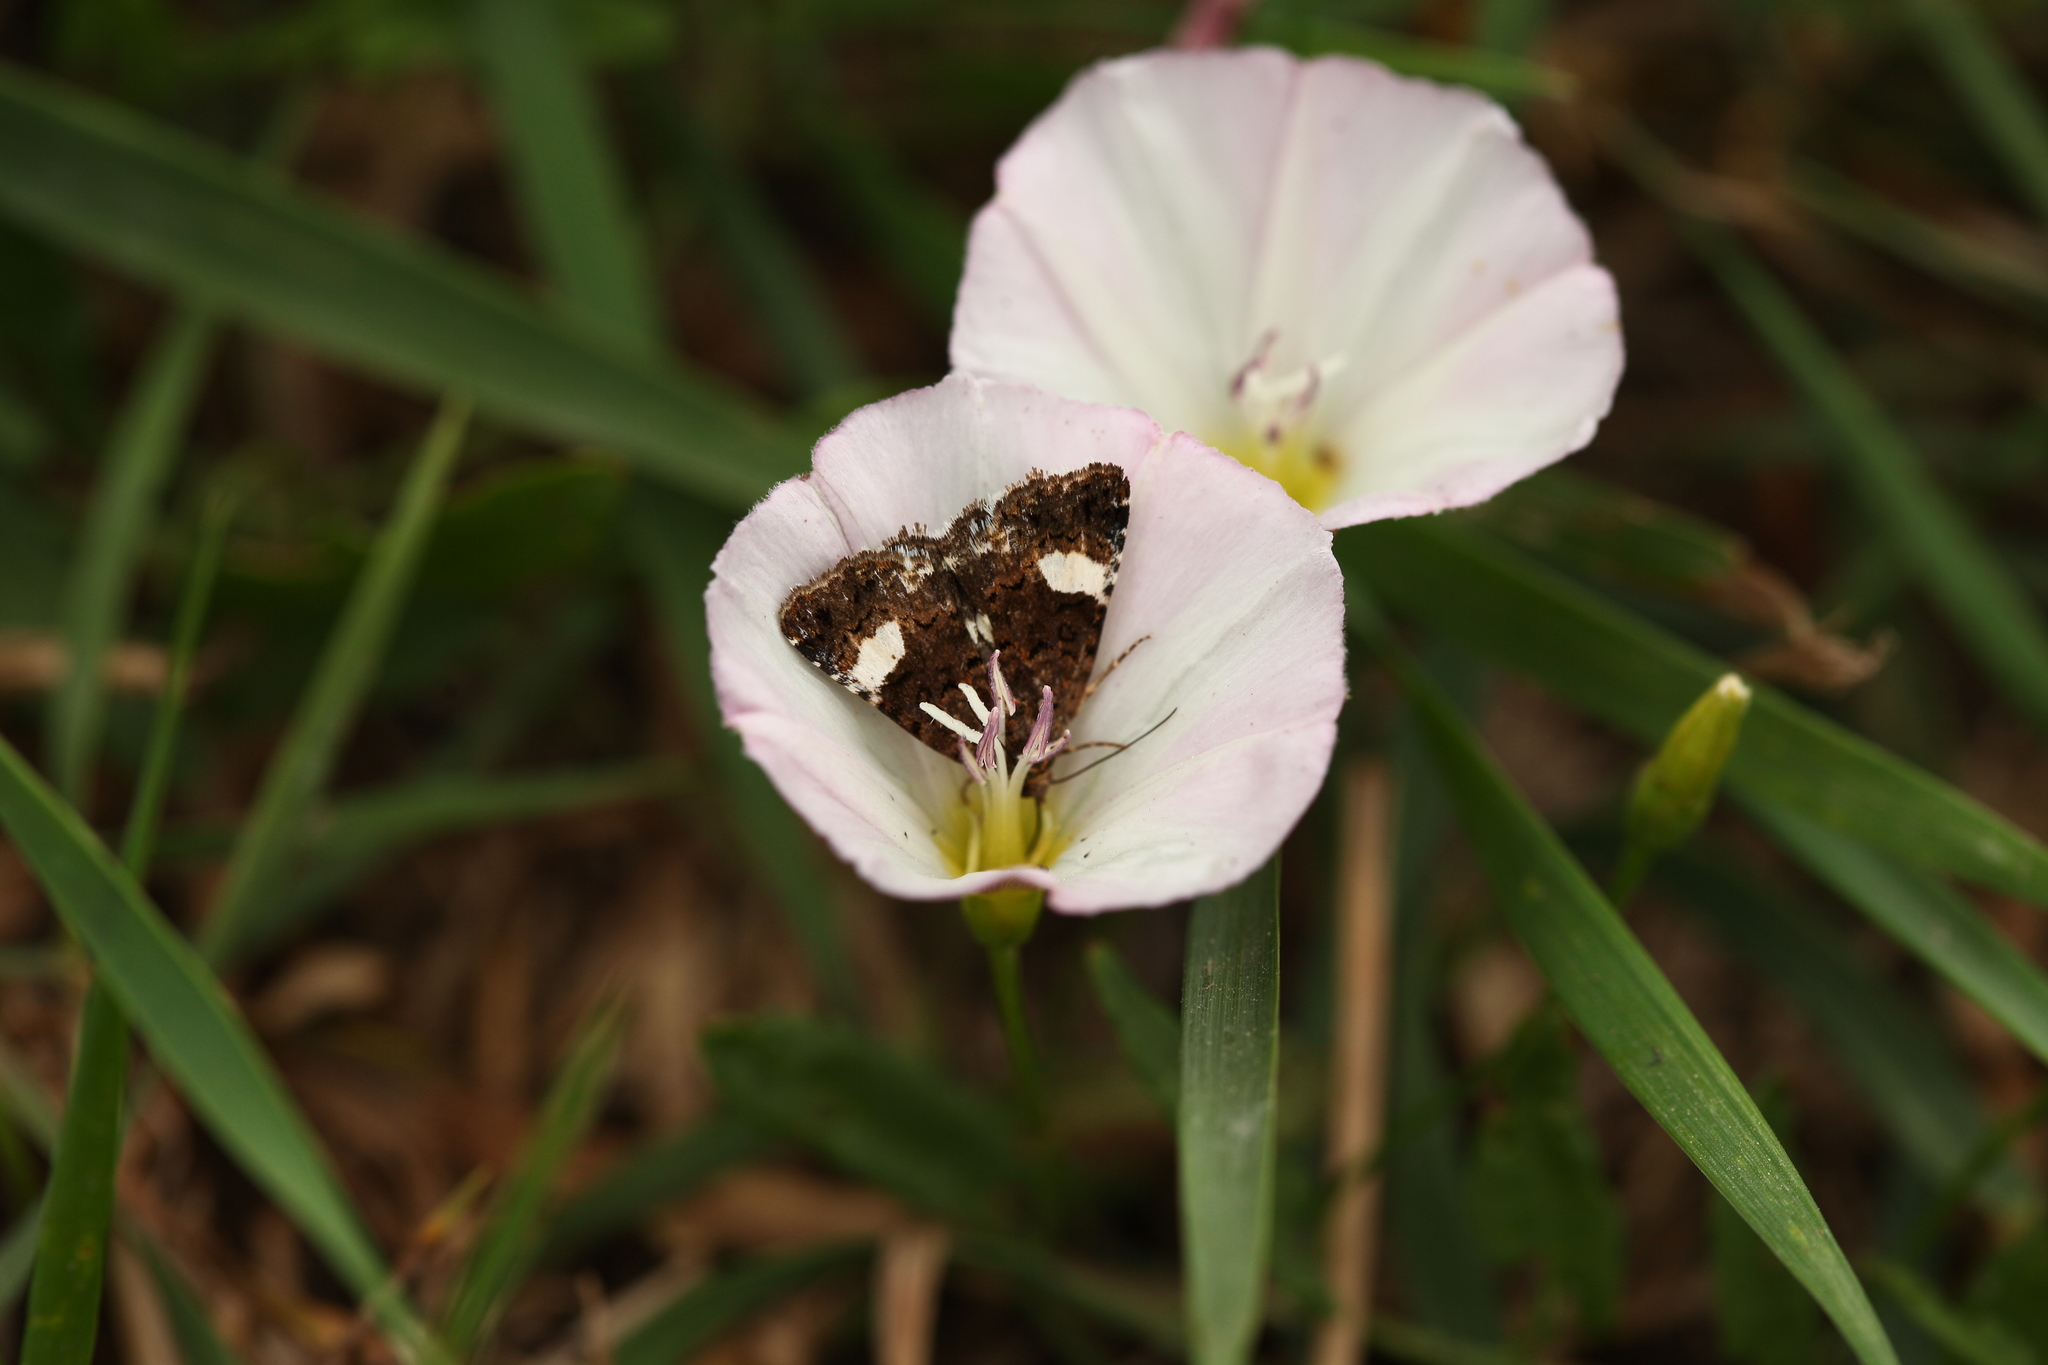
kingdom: Animalia
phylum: Arthropoda
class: Insecta
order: Lepidoptera
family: Erebidae
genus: Tyta
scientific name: Tyta luctuosa
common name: Four-spotted
